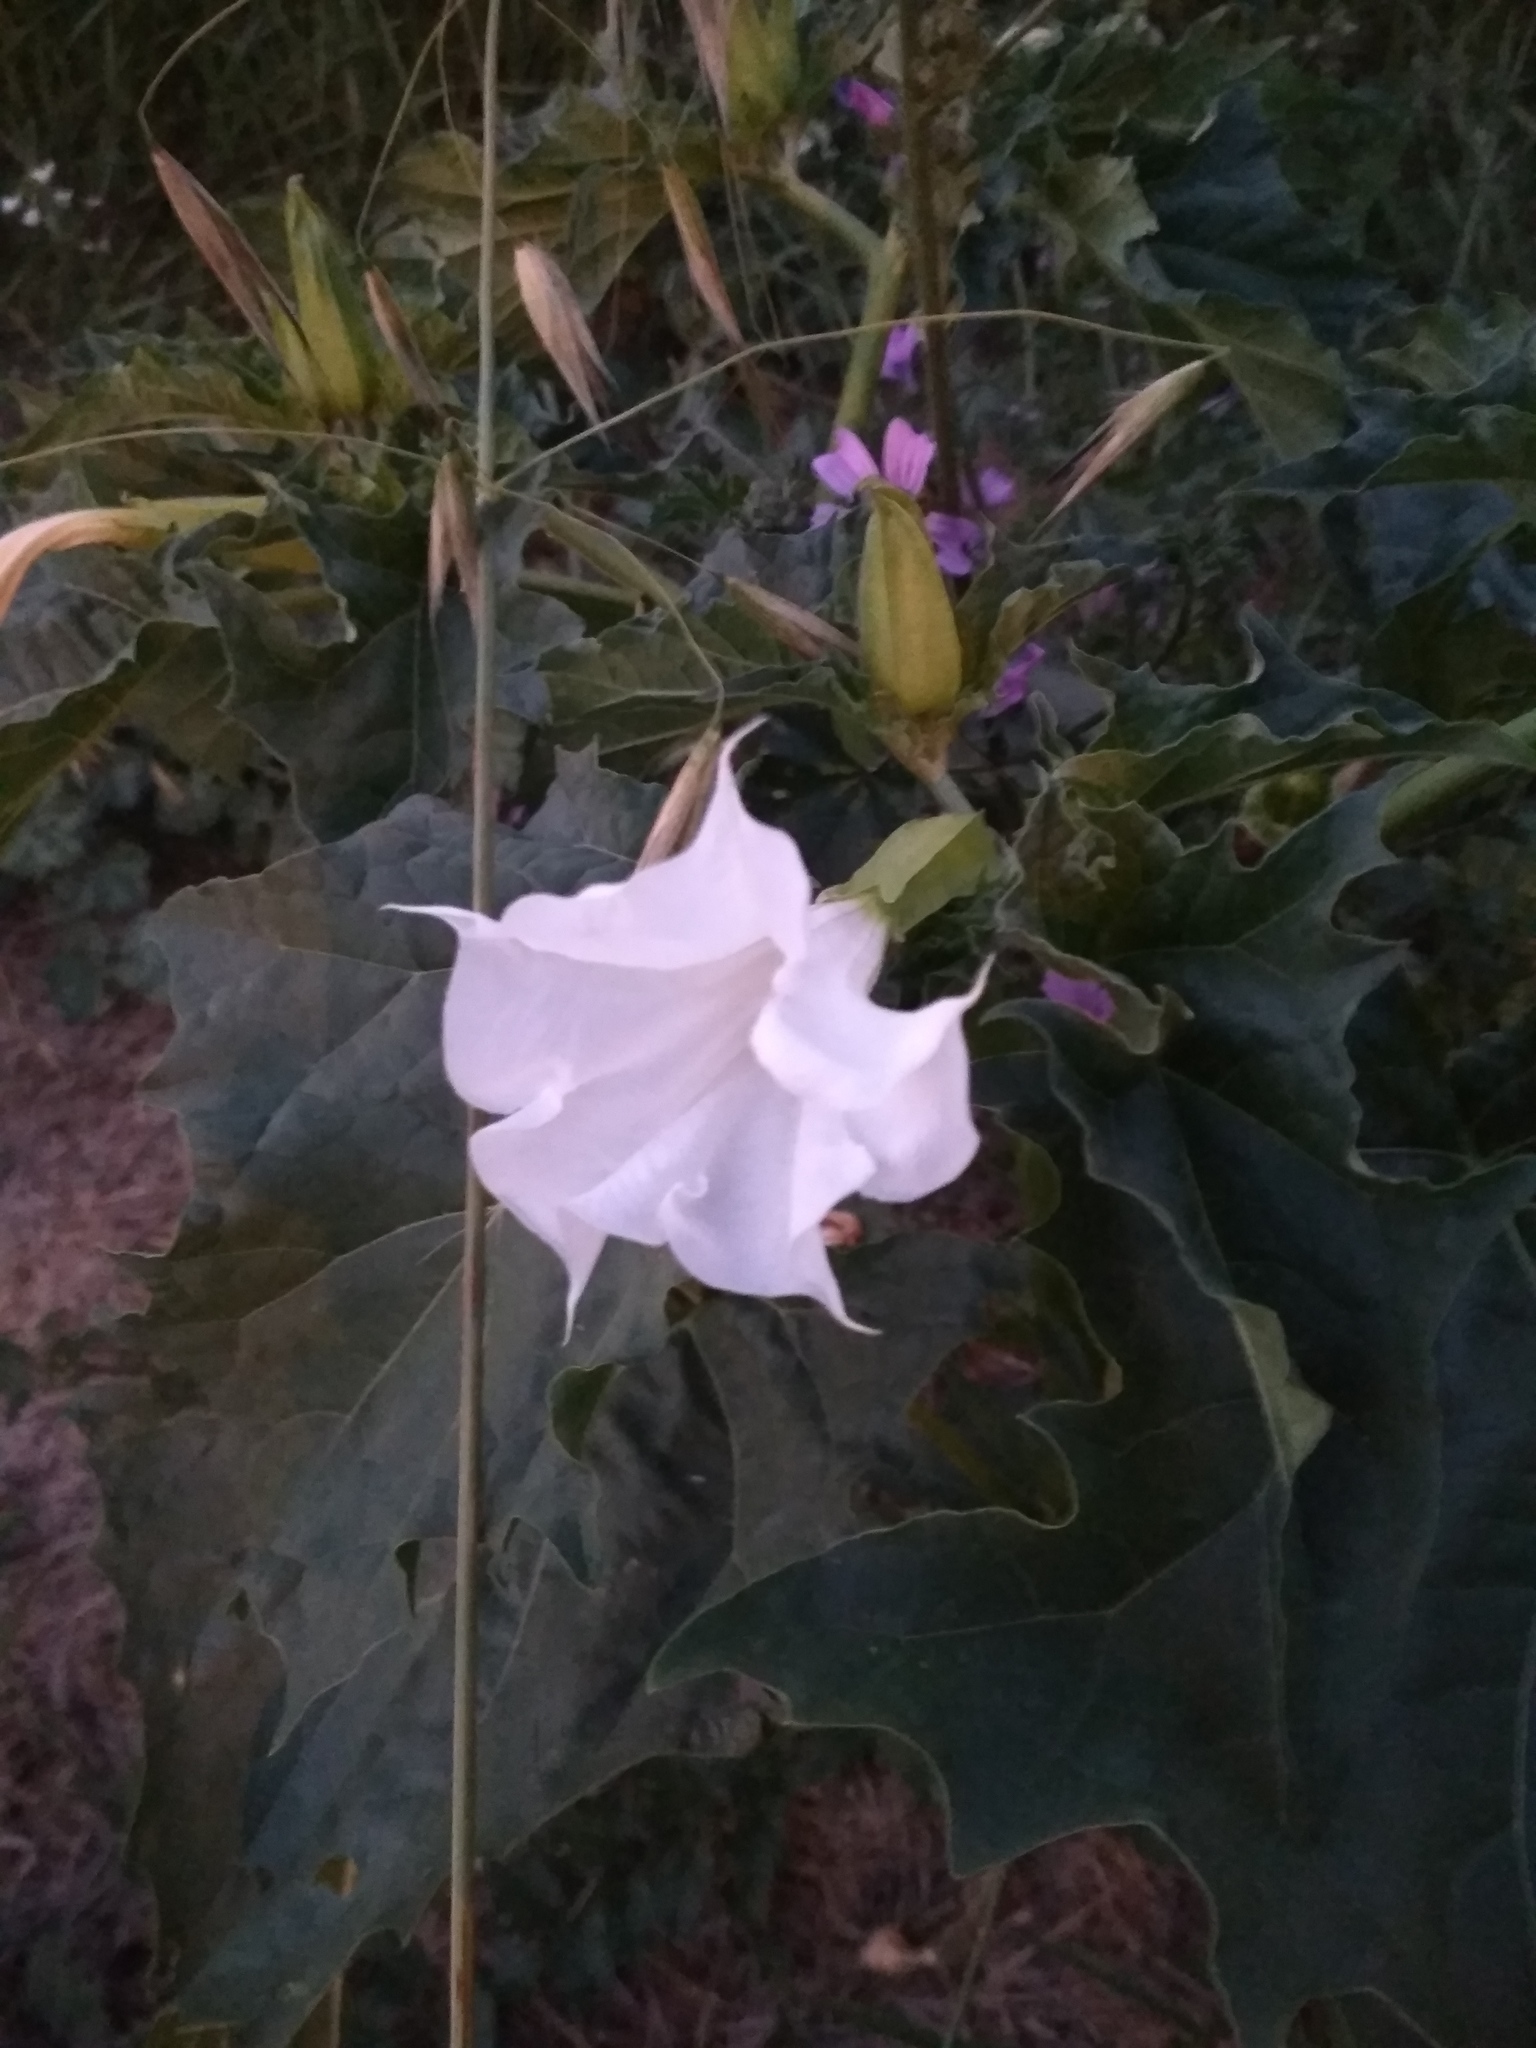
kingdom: Plantae
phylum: Tracheophyta
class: Magnoliopsida
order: Solanales
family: Solanaceae
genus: Datura
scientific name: Datura stramonium
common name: Thorn-apple
